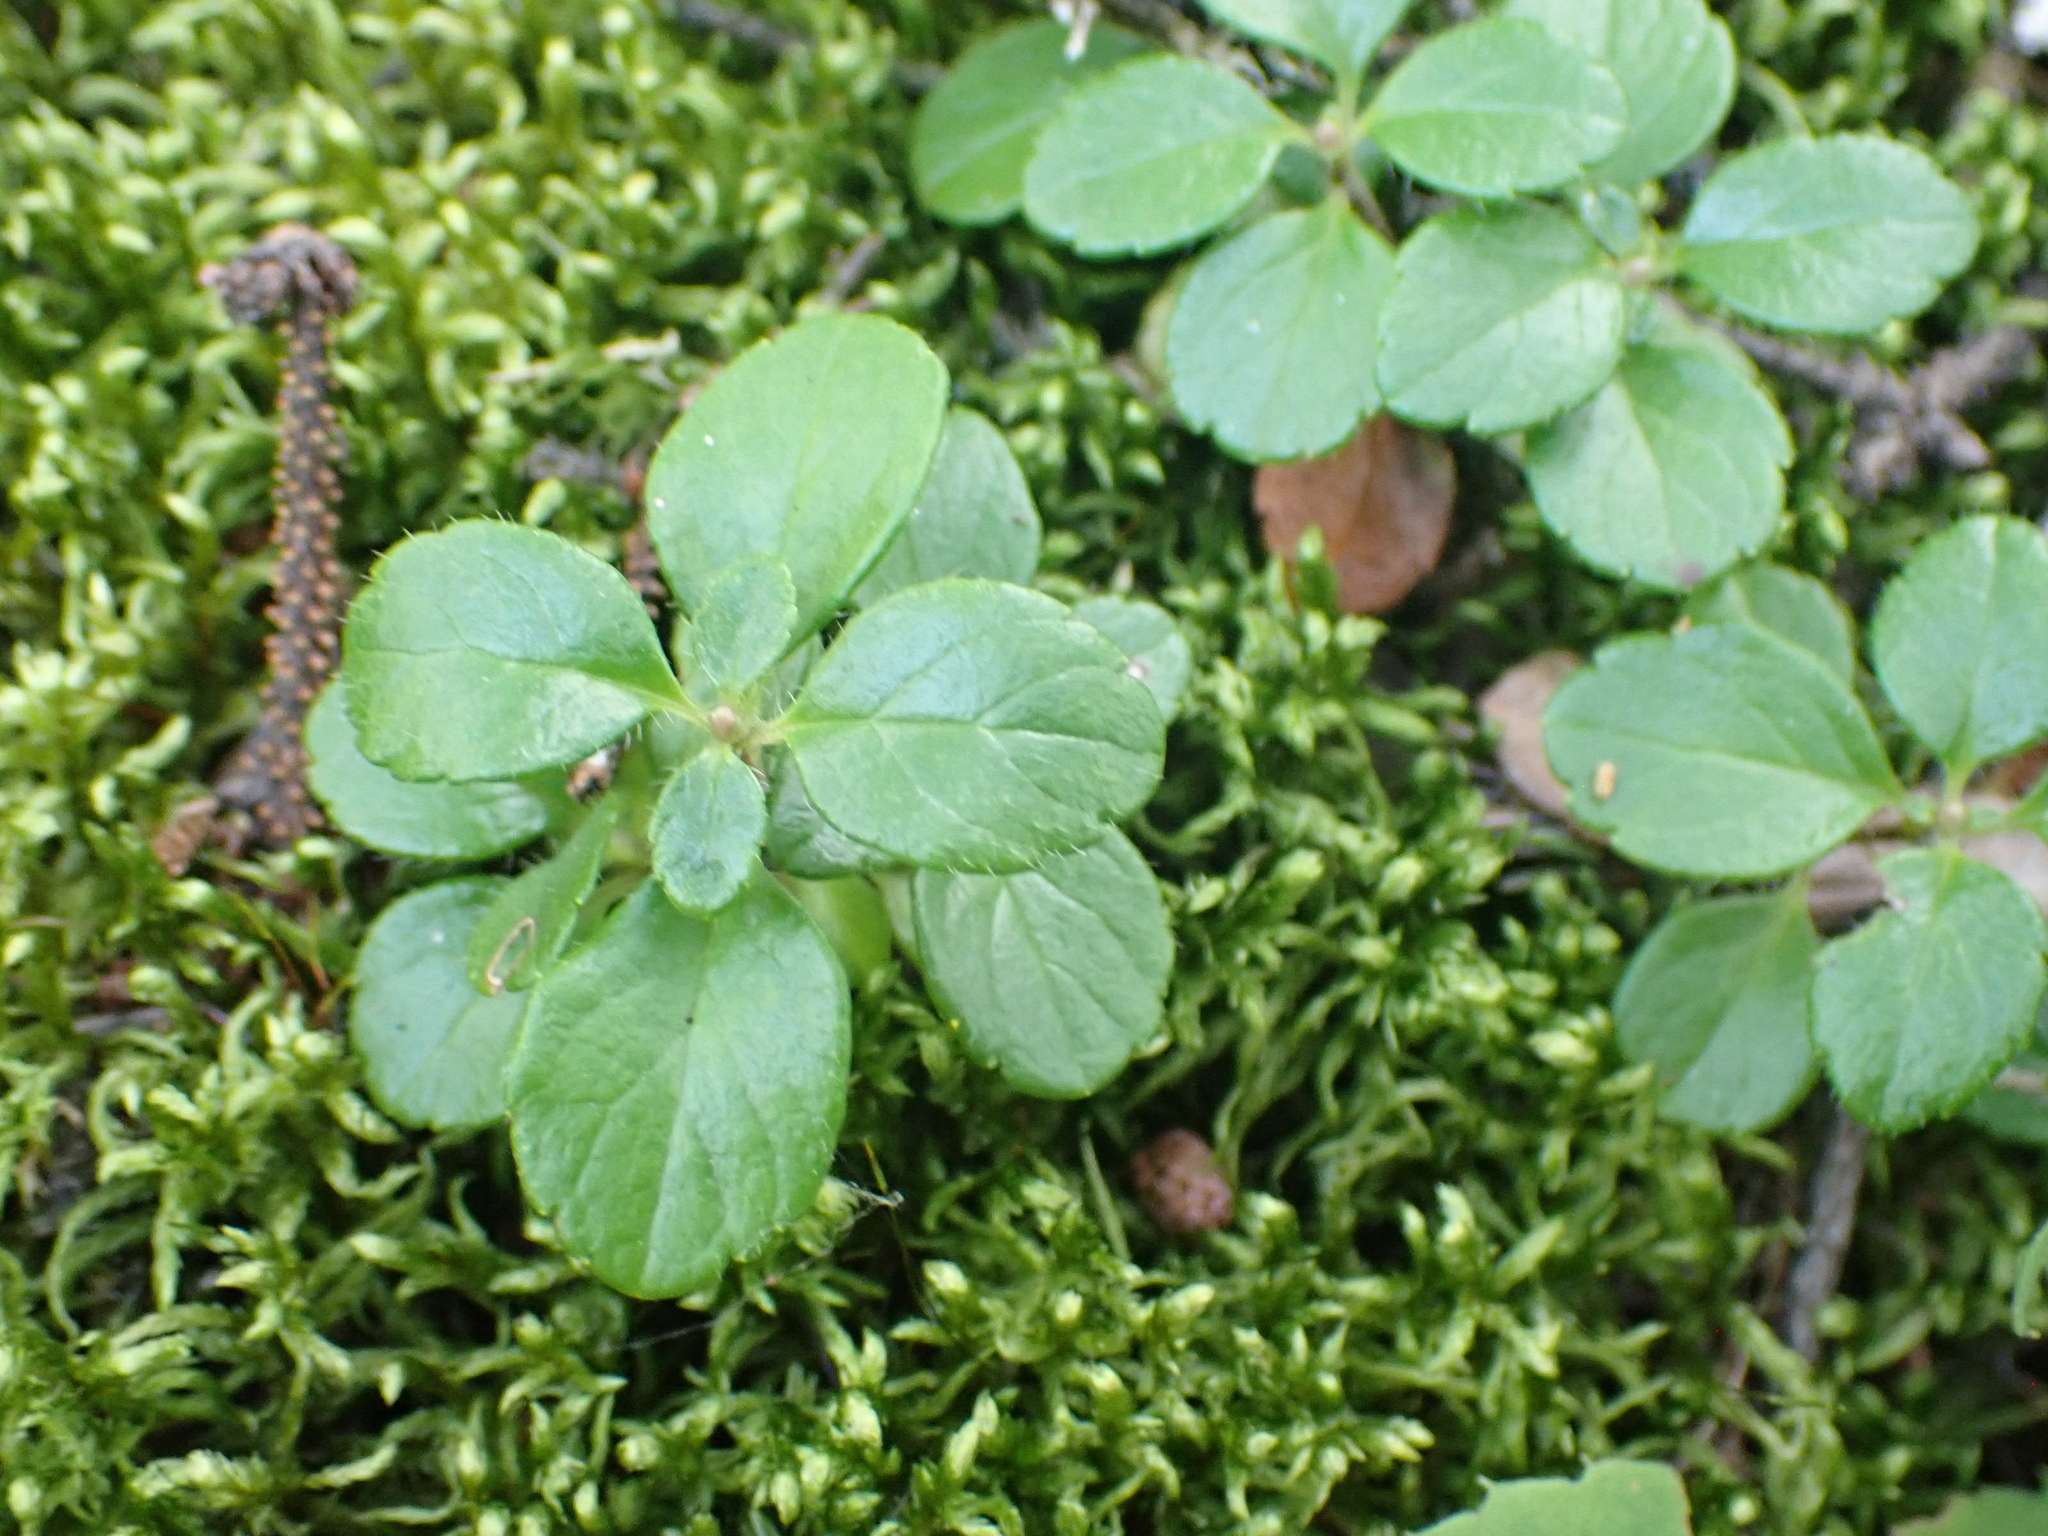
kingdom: Plantae
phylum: Tracheophyta
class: Magnoliopsida
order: Dipsacales
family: Caprifoliaceae
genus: Linnaea
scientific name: Linnaea borealis
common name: Twinflower
